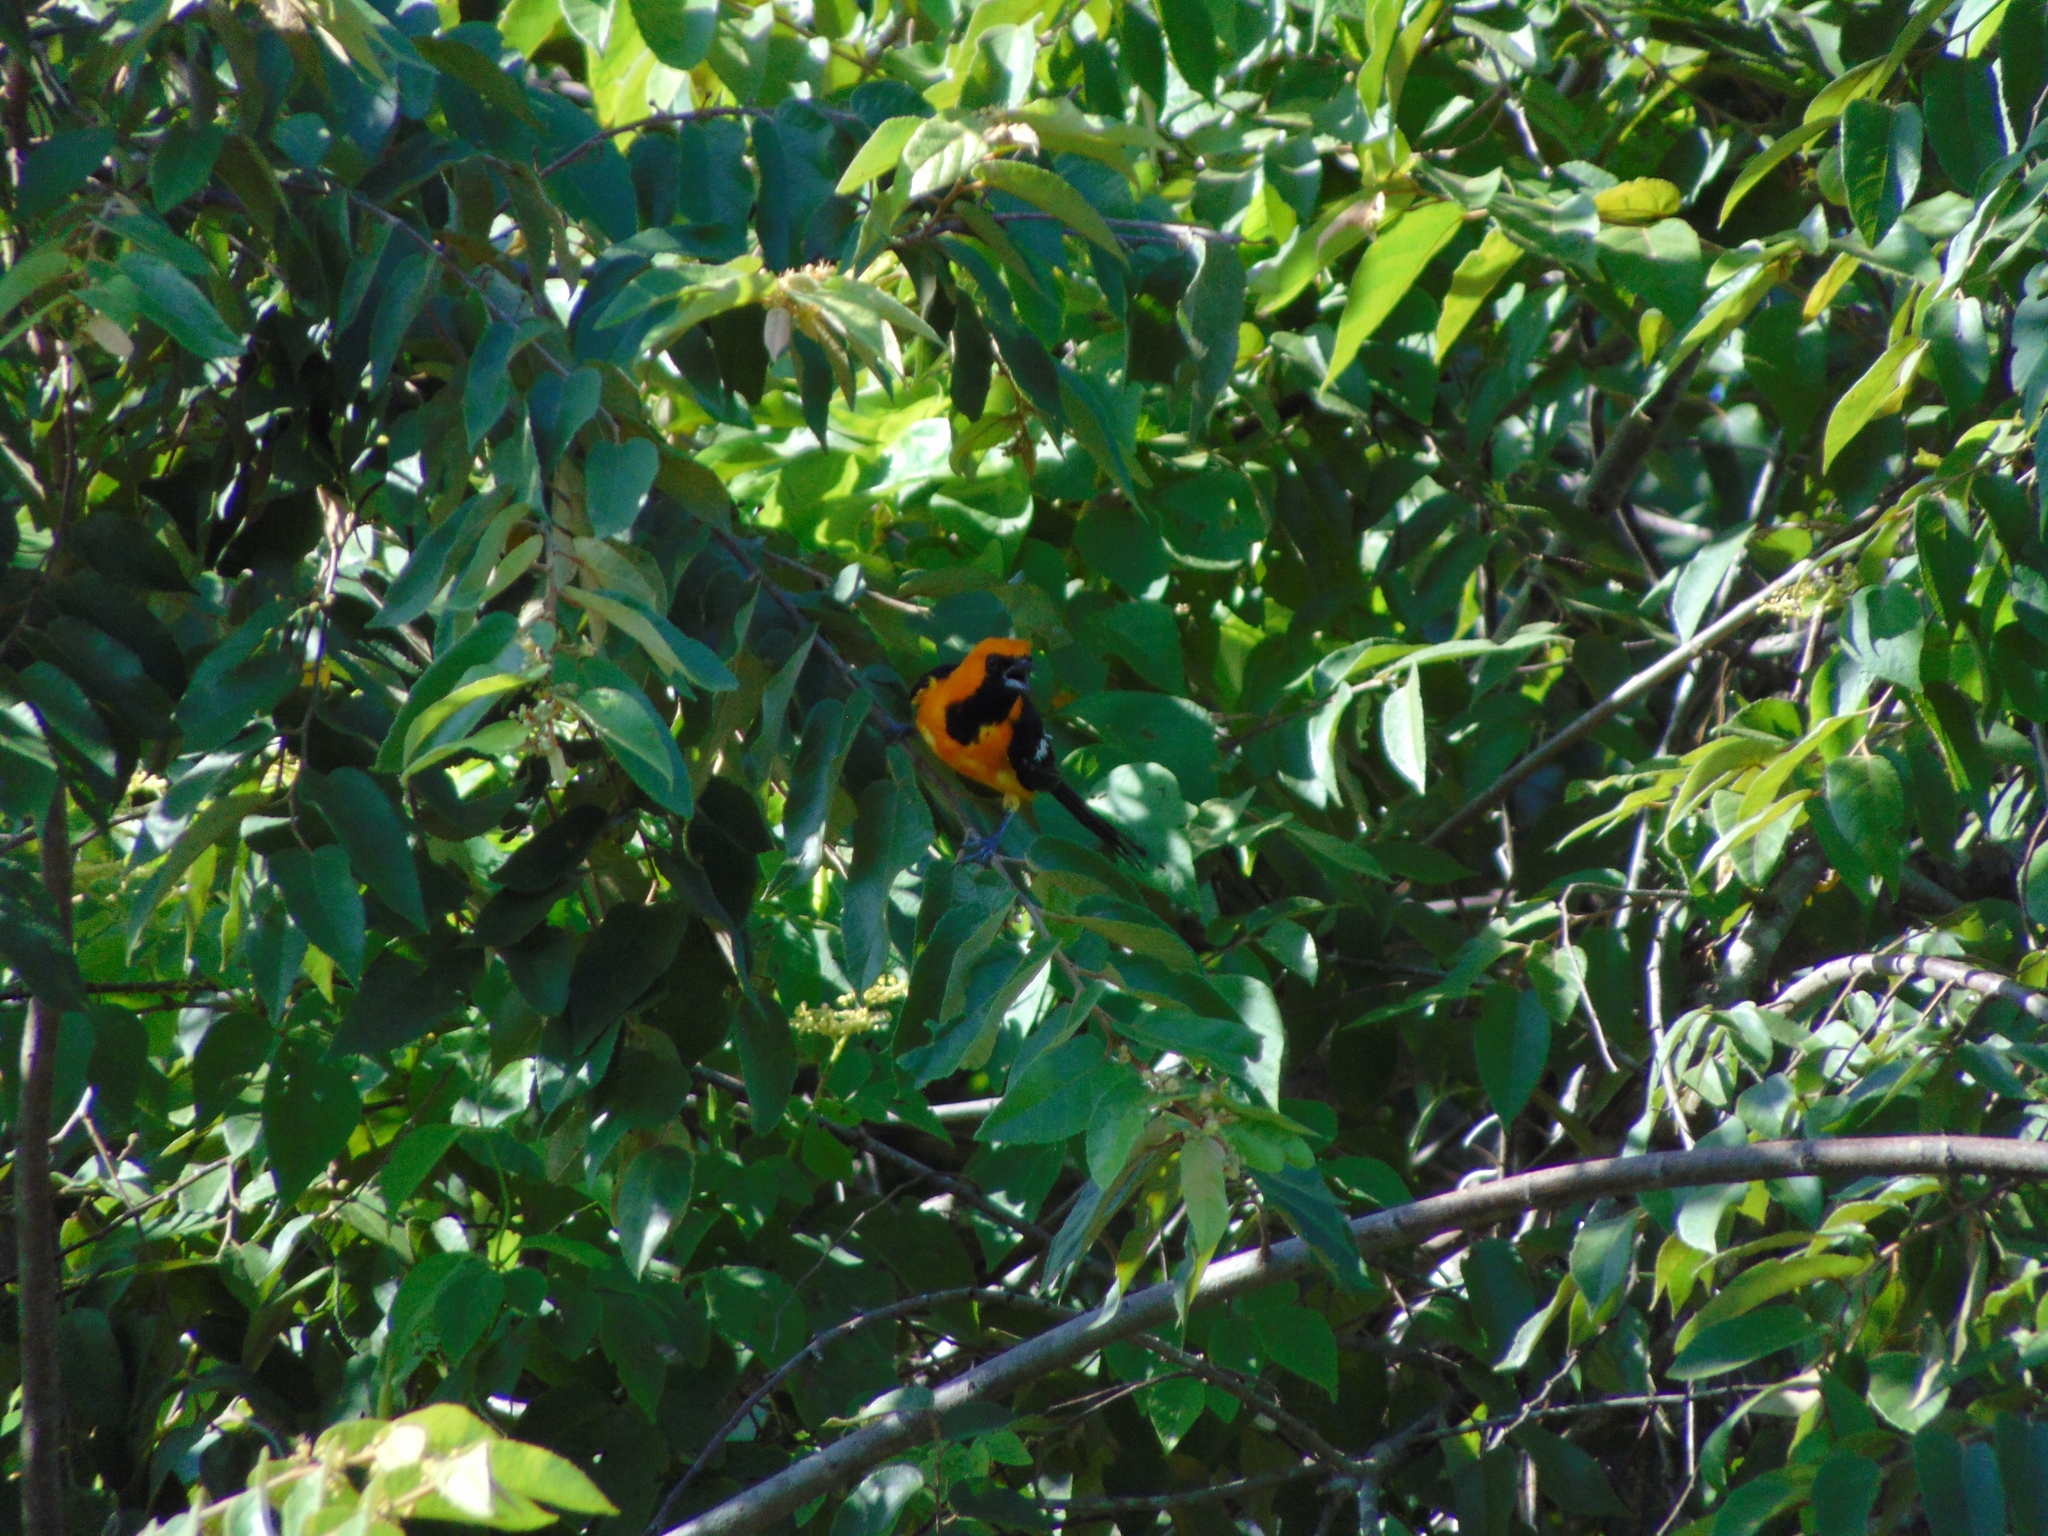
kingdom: Animalia
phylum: Chordata
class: Aves
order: Passeriformes
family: Icteridae
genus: Icterus
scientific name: Icterus gularis
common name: Altamira oriole
